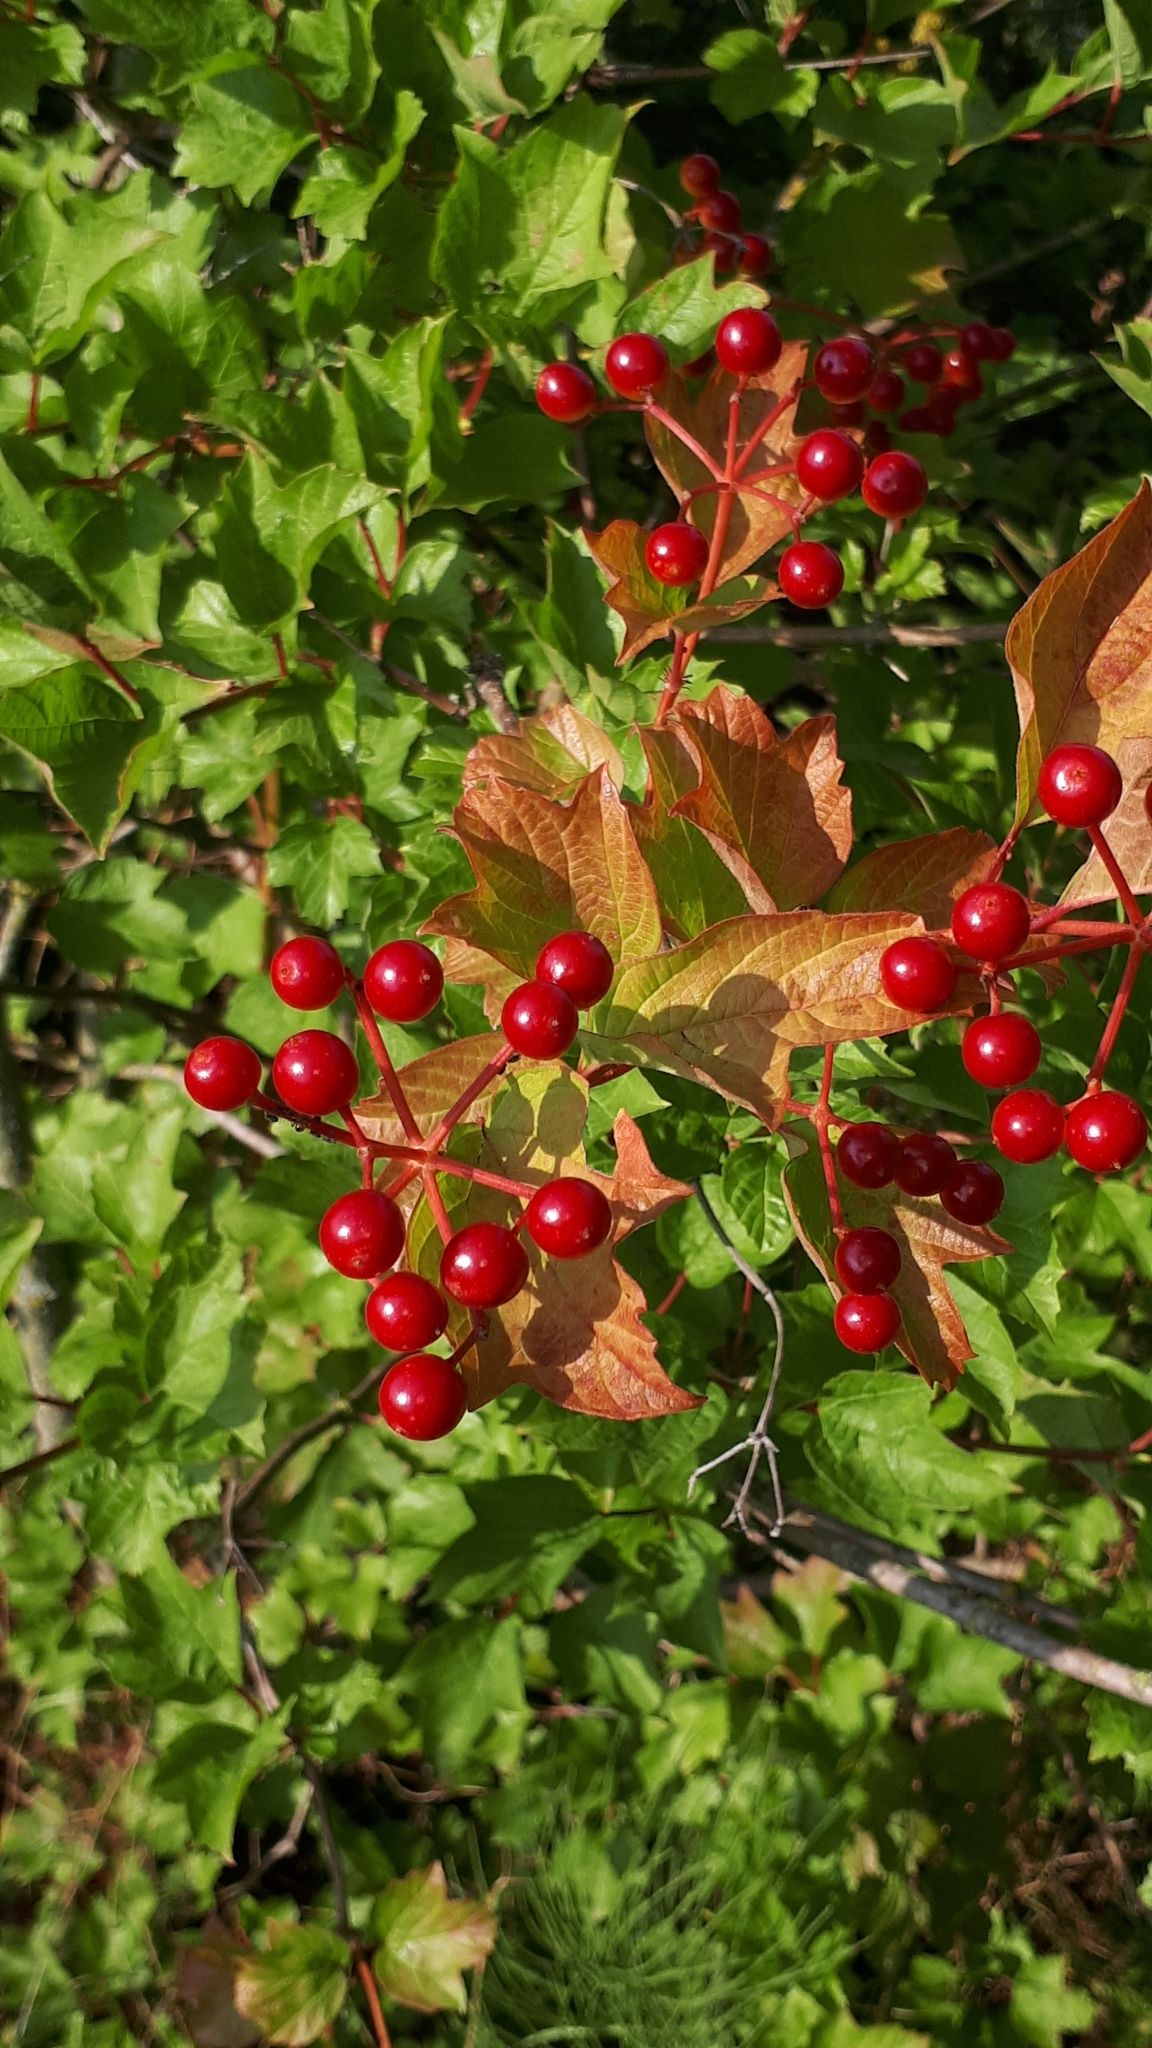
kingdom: Plantae
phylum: Tracheophyta
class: Magnoliopsida
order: Dipsacales
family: Viburnaceae
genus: Viburnum
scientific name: Viburnum opulus
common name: Guelder-rose
